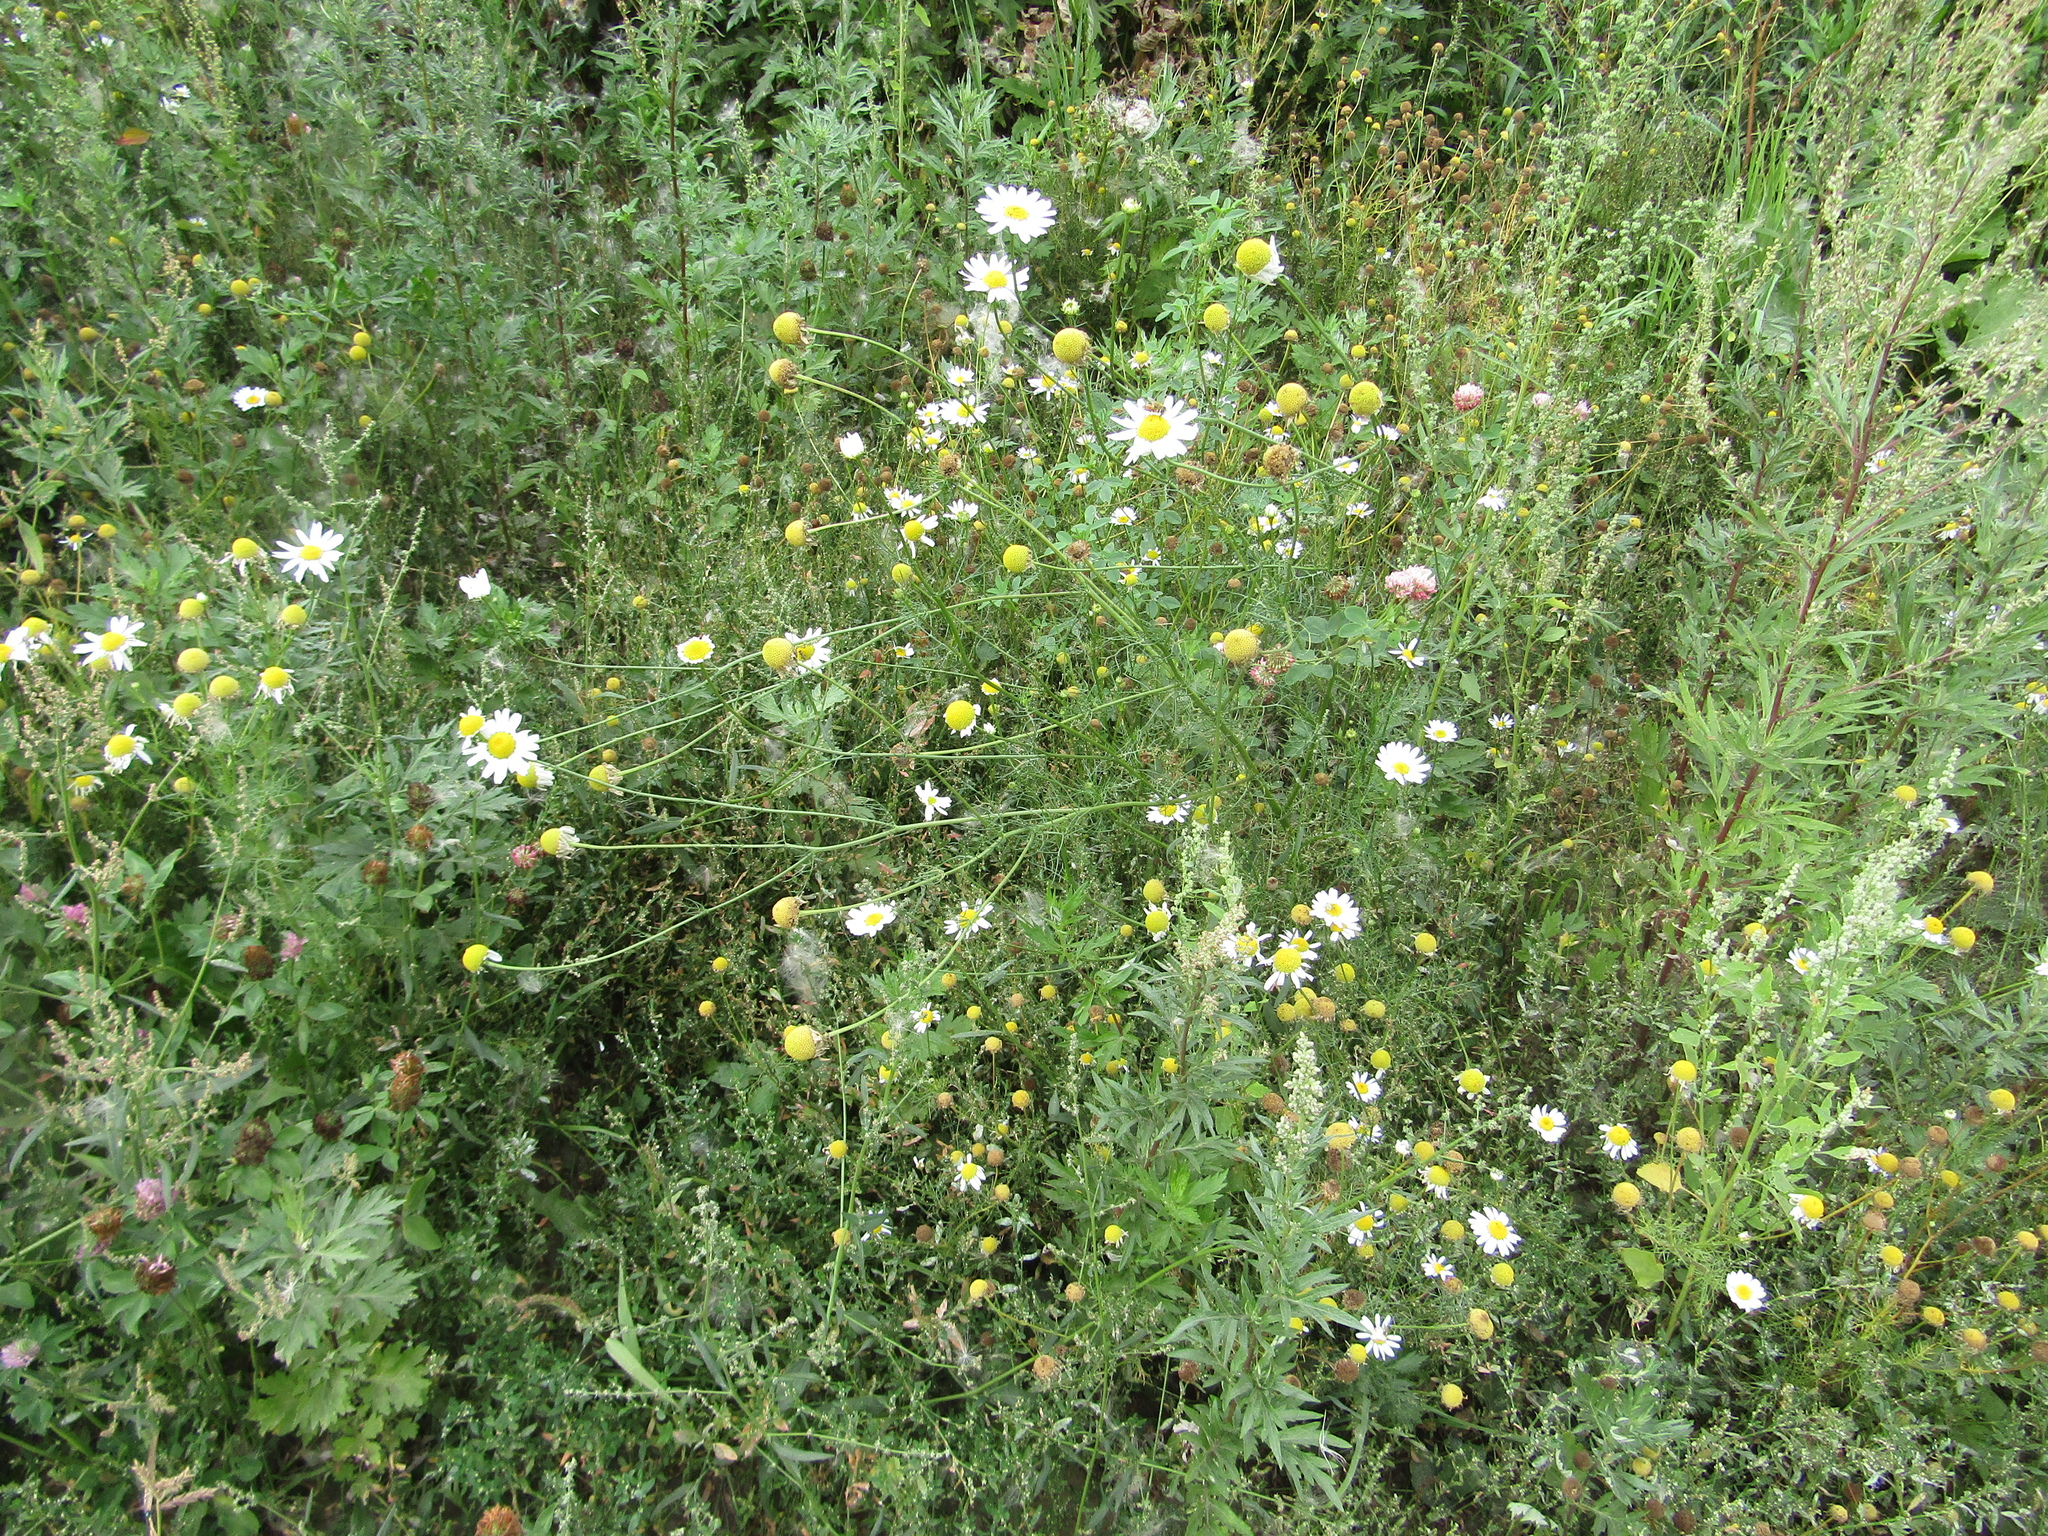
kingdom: Plantae
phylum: Tracheophyta
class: Magnoliopsida
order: Asterales
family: Asteraceae
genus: Tripleurospermum
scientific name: Tripleurospermum inodorum
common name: Scentless mayweed
